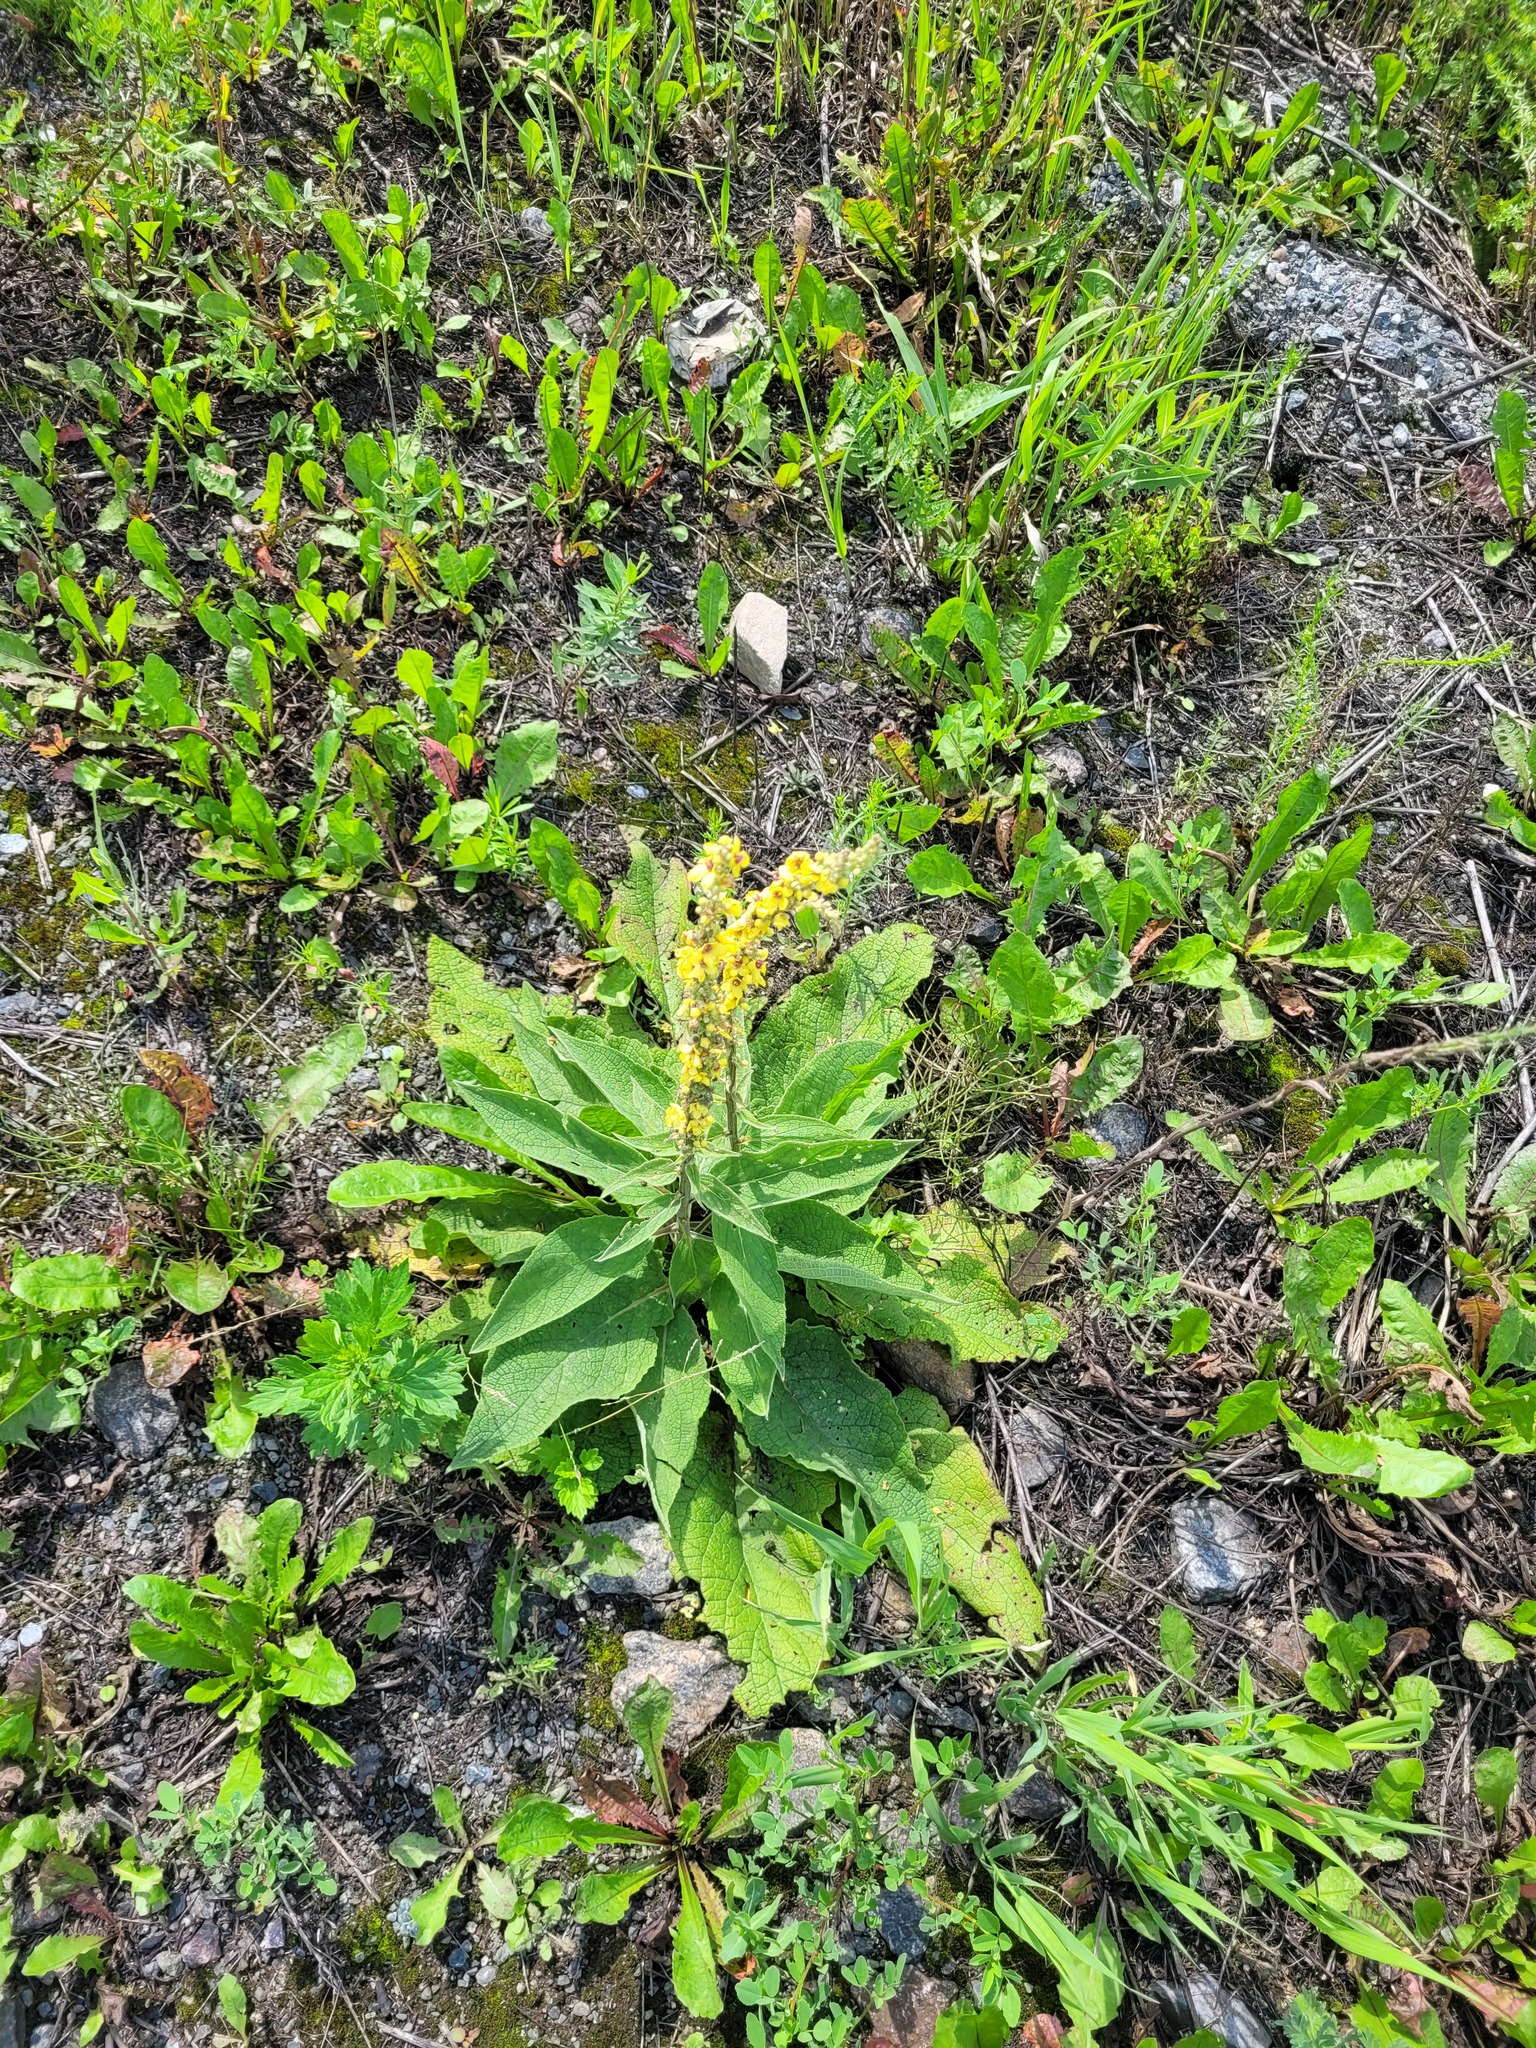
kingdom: Plantae
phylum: Tracheophyta
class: Magnoliopsida
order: Lamiales
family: Scrophulariaceae
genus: Verbascum
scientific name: Verbascum nigrum
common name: Dark mullein
